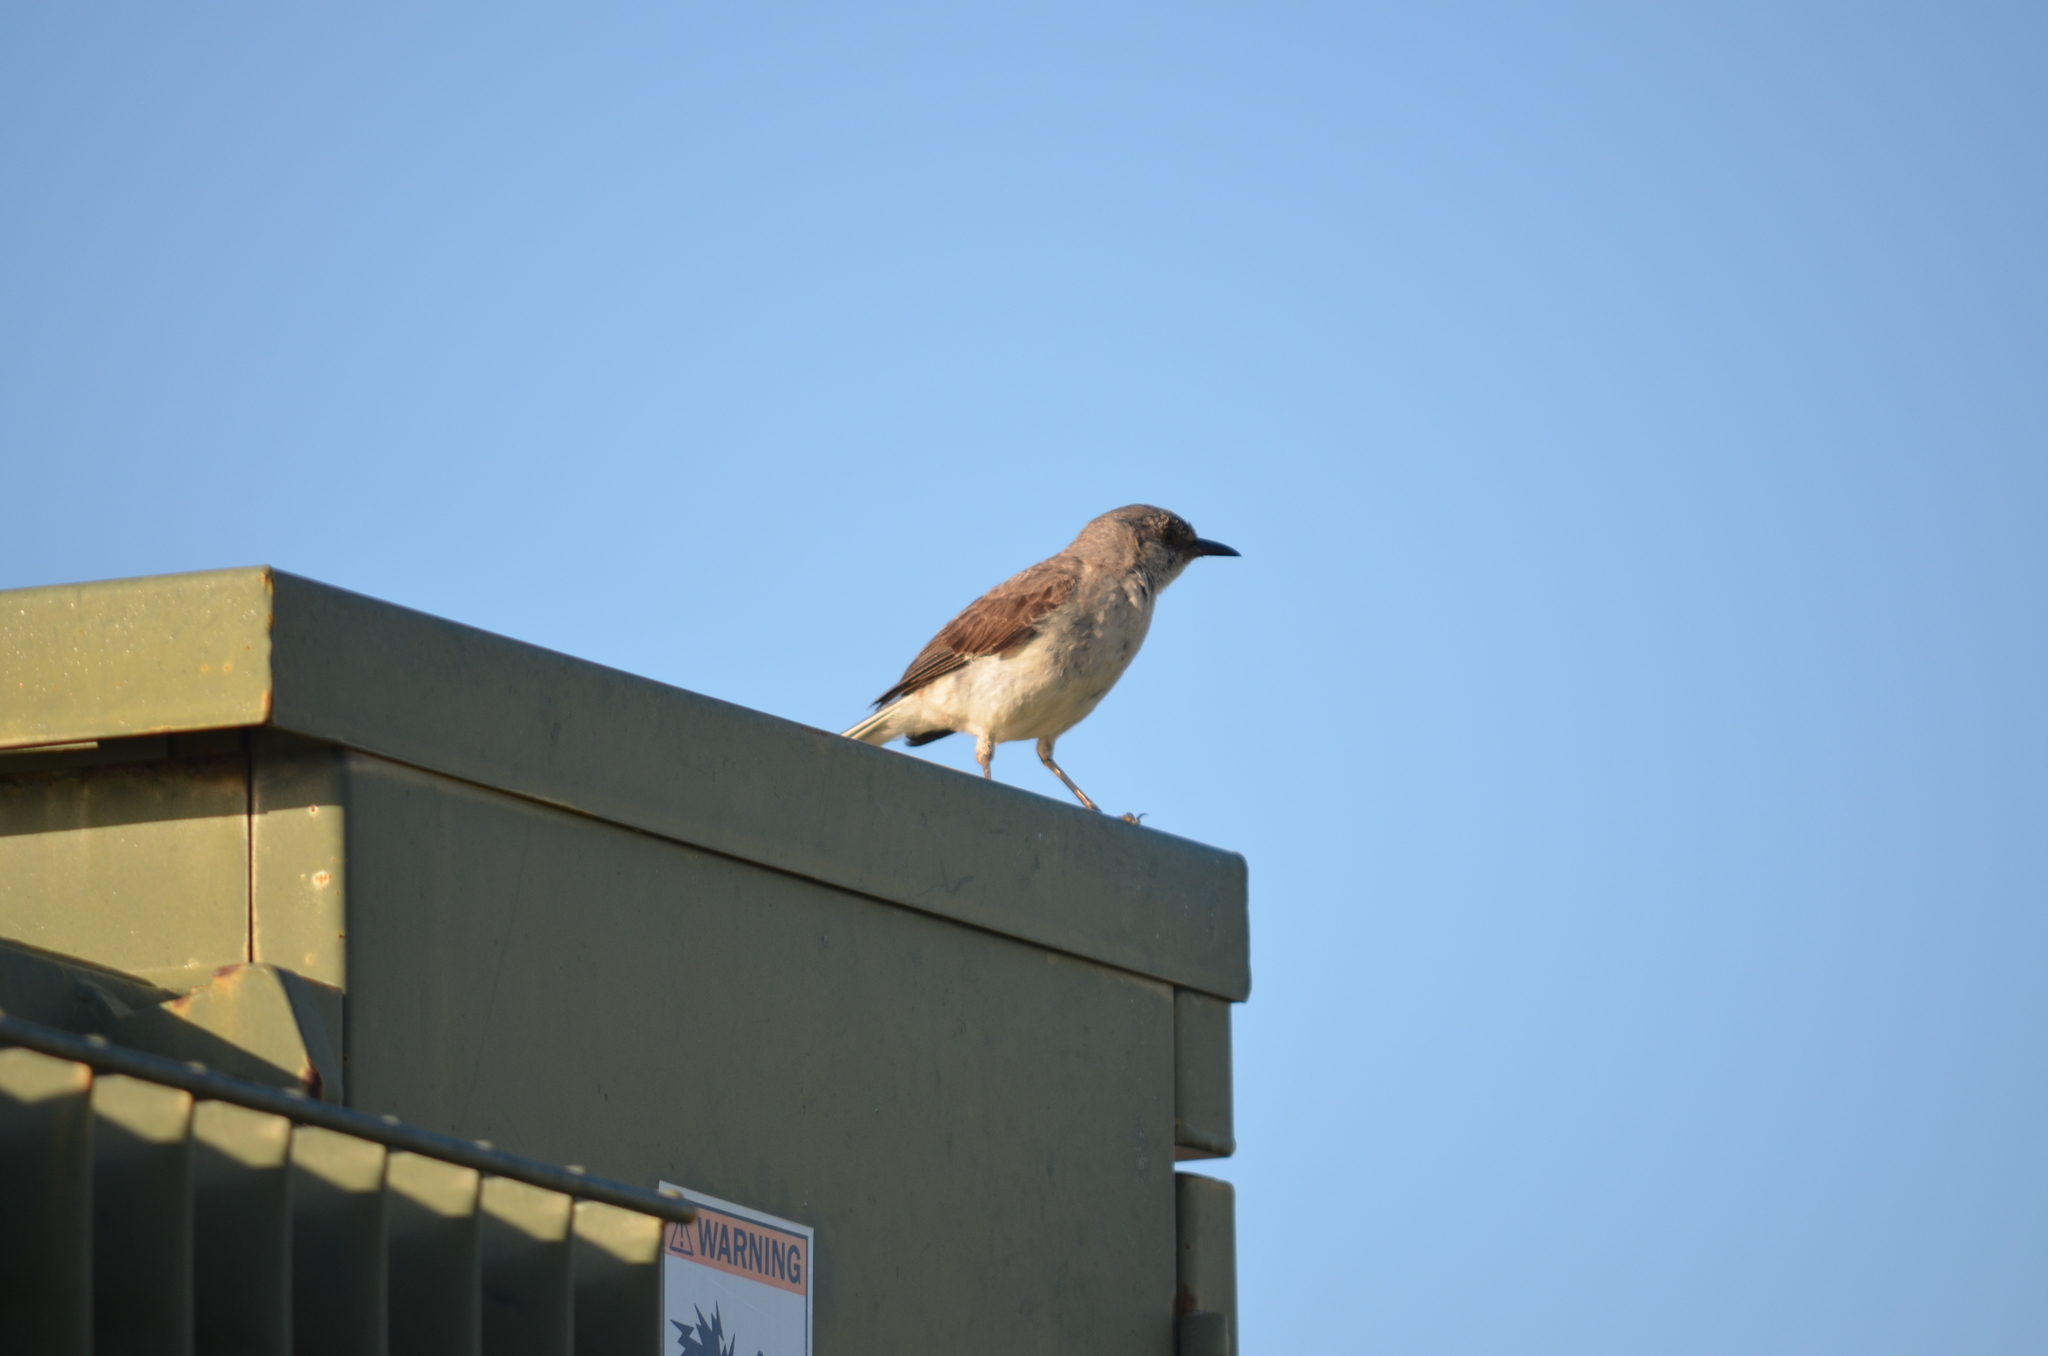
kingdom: Animalia
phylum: Chordata
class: Aves
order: Passeriformes
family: Mimidae
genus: Mimus
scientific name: Mimus polyglottos
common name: Northern mockingbird
